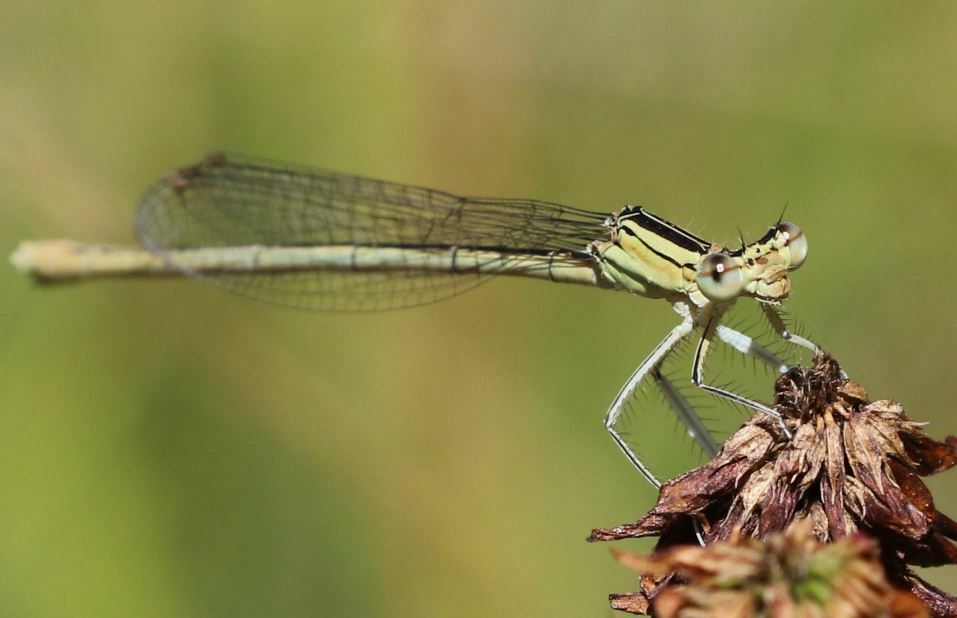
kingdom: Animalia
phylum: Arthropoda
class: Insecta
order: Odonata
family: Platycnemididae
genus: Platycnemis
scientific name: Platycnemis pennipes
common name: White-legged damselfly
